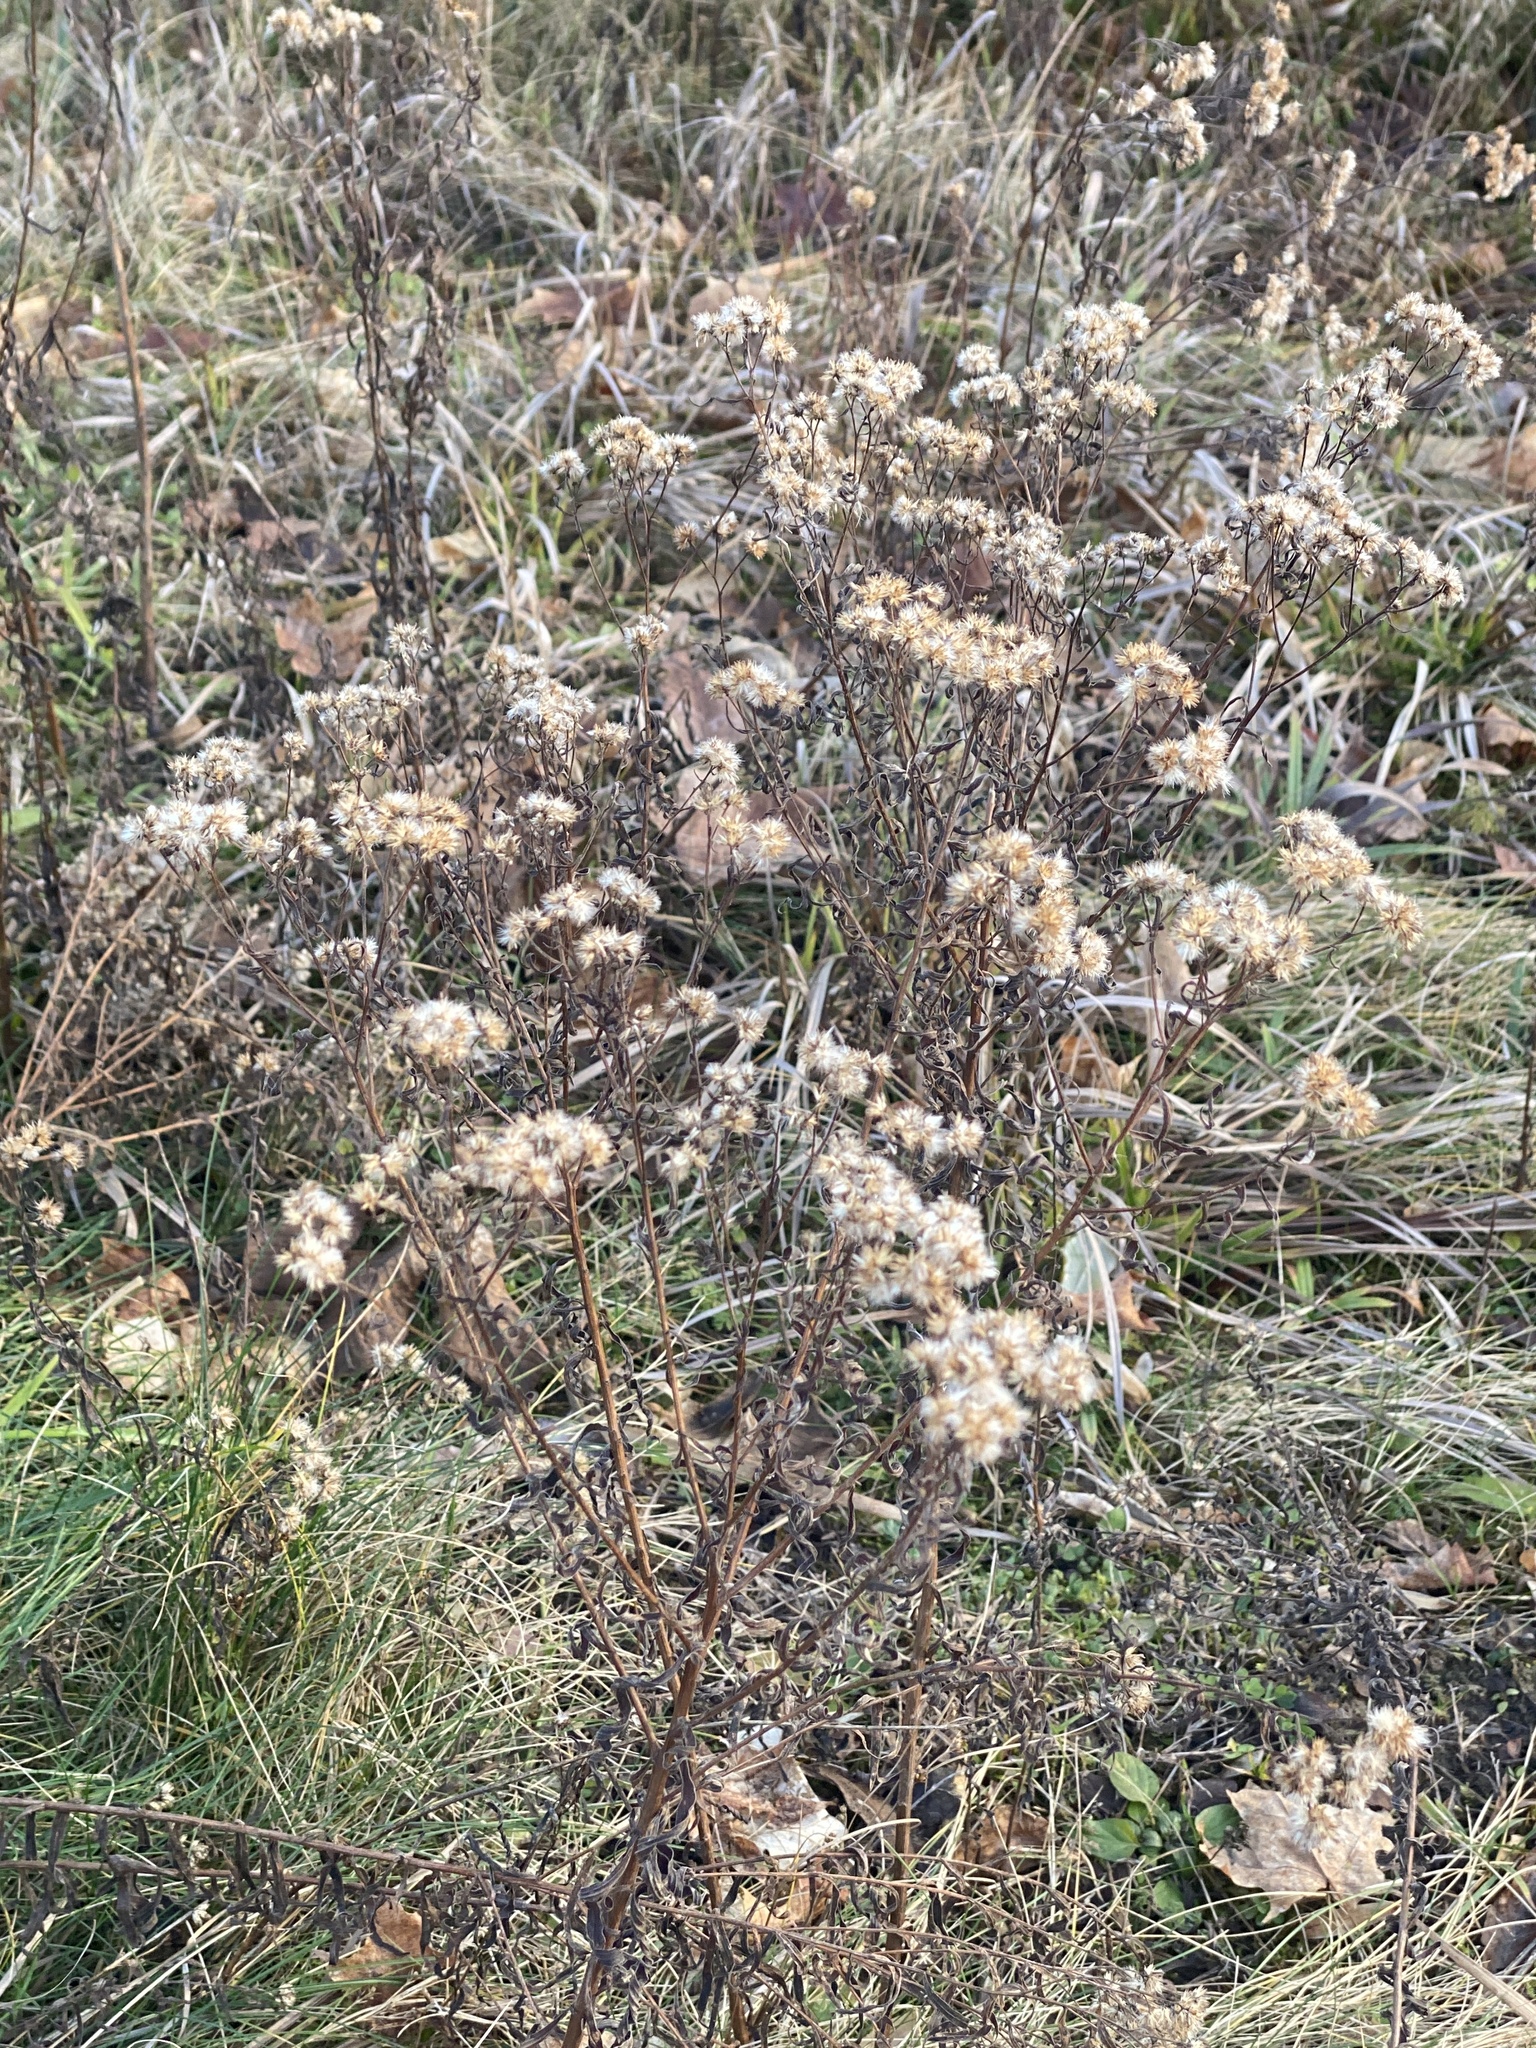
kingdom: Plantae
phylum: Tracheophyta
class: Magnoliopsida
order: Asterales
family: Asteraceae
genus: Euthamia
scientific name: Euthamia graminifolia
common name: Common goldentop
